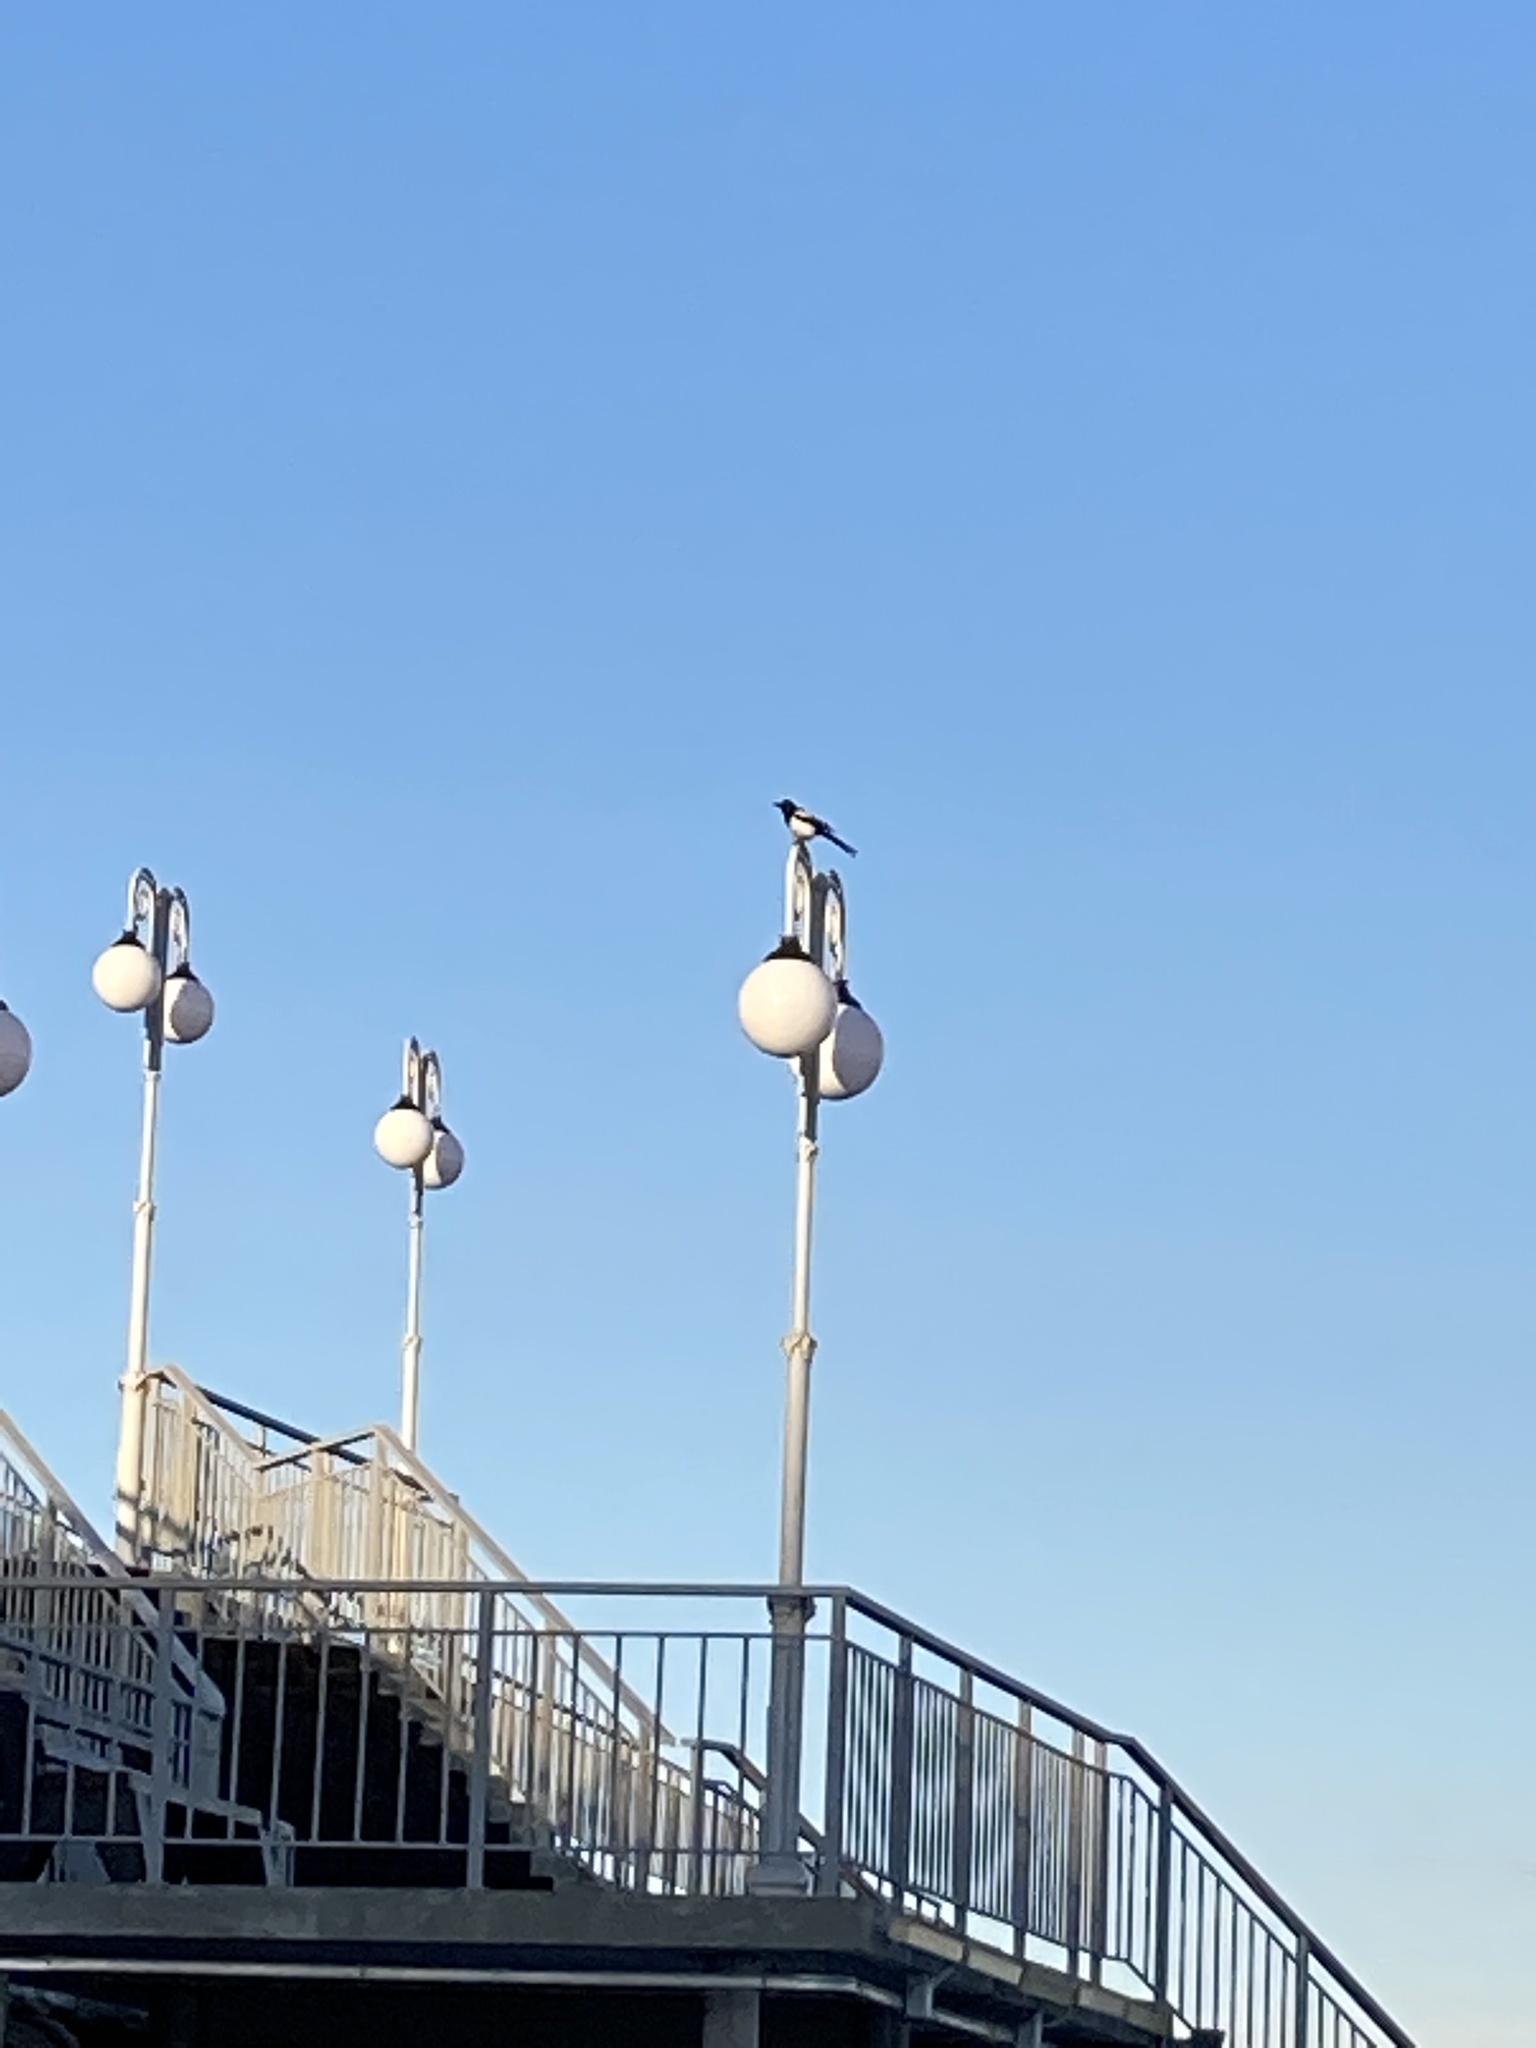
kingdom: Animalia
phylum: Chordata
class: Aves
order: Passeriformes
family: Corvidae
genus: Pica
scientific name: Pica pica
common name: Eurasian magpie
